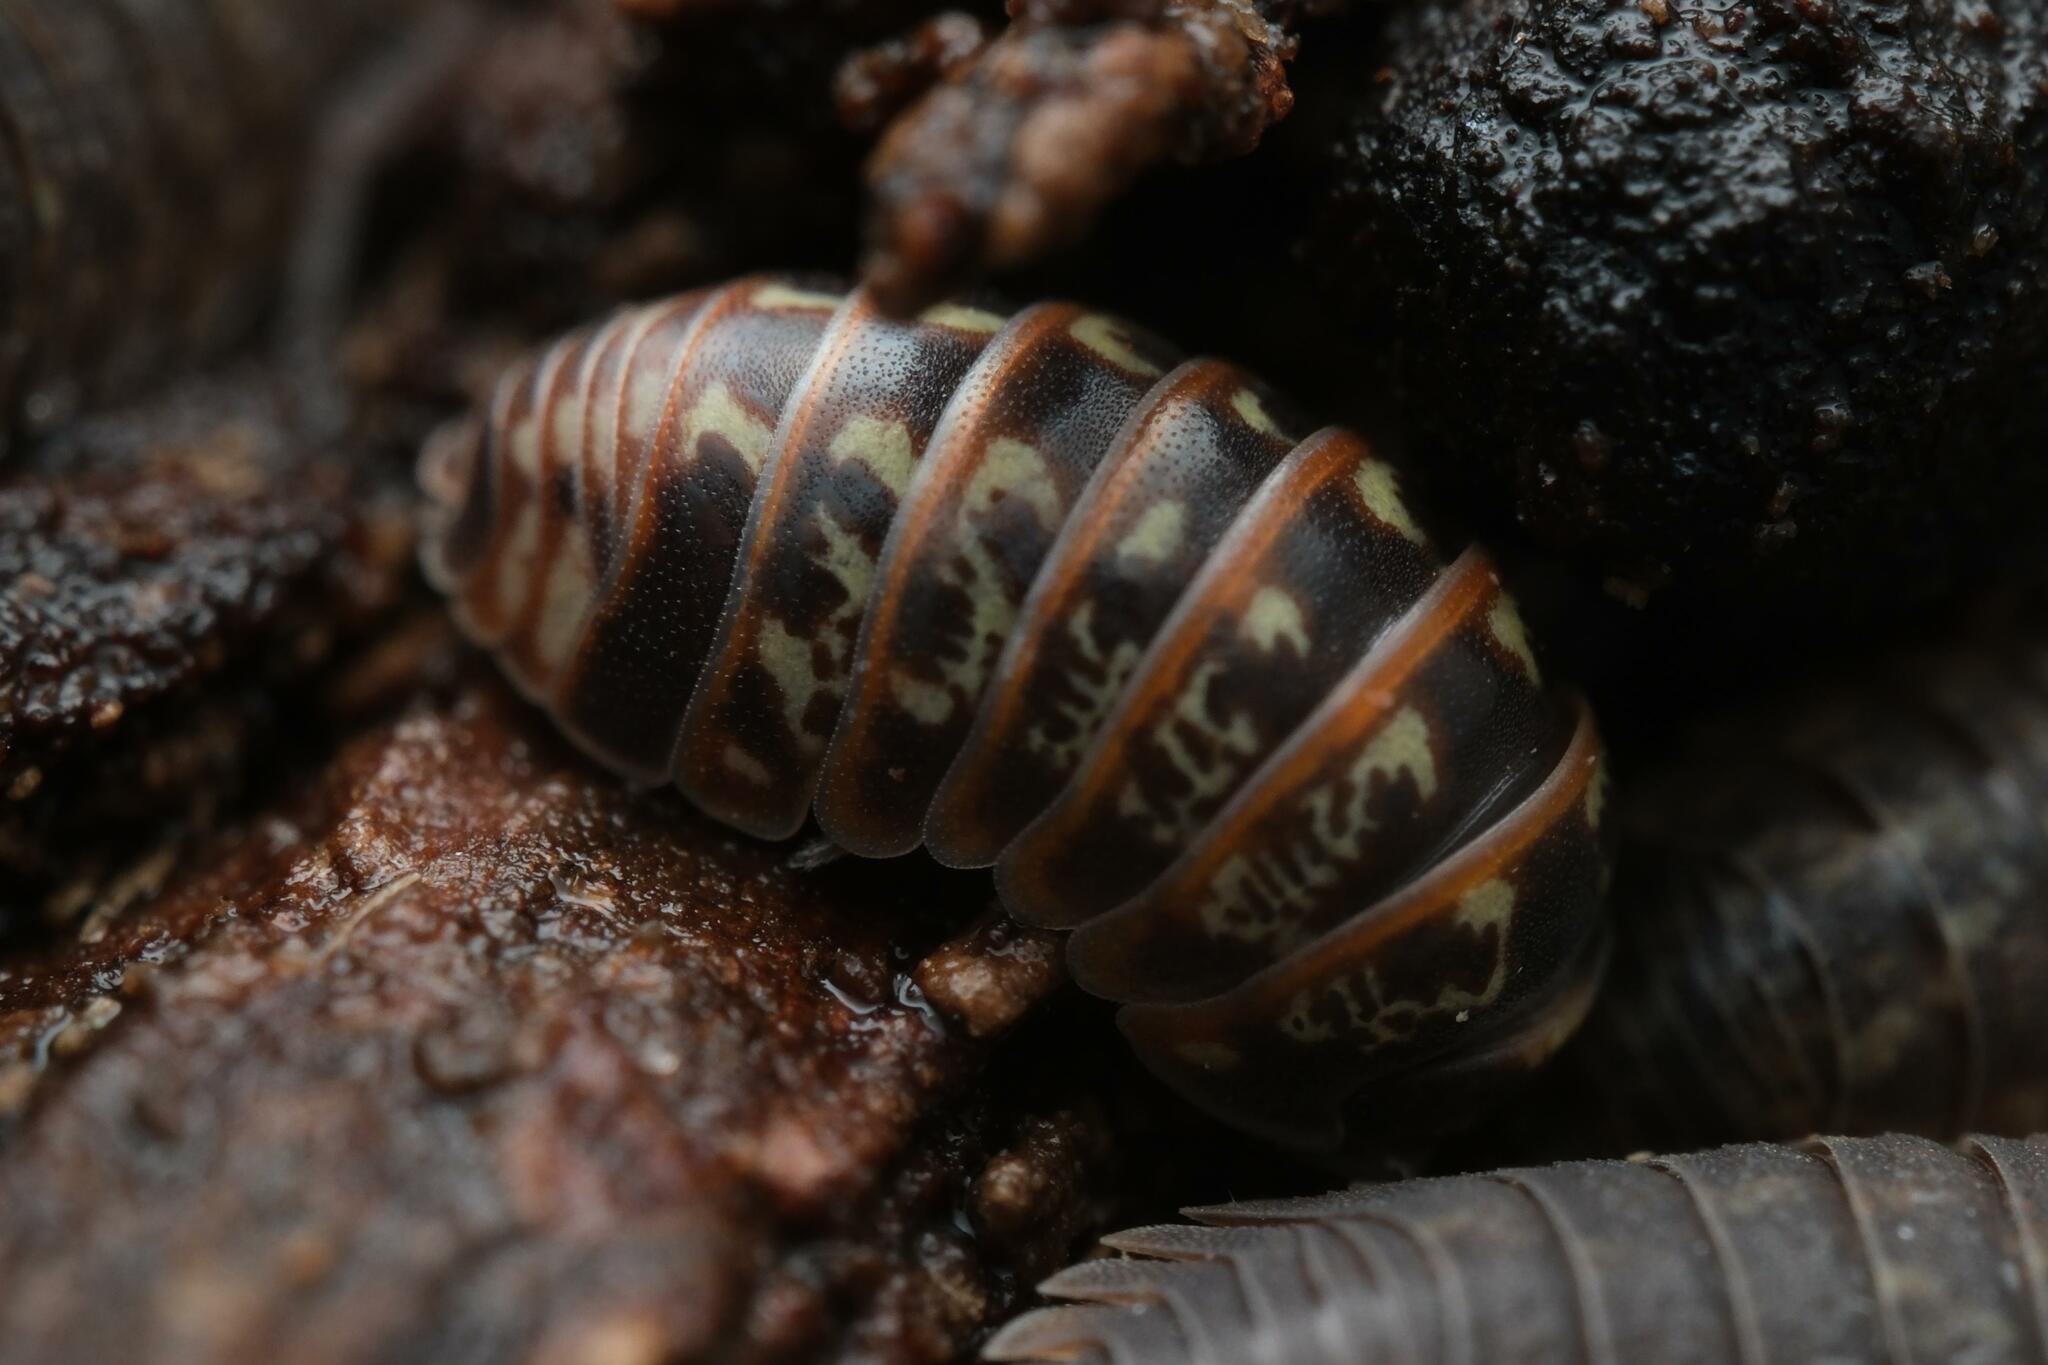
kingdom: Animalia
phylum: Arthropoda
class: Malacostraca
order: Isopoda
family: Armadillidiidae
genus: Armadillidium
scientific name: Armadillidium pulchellum
